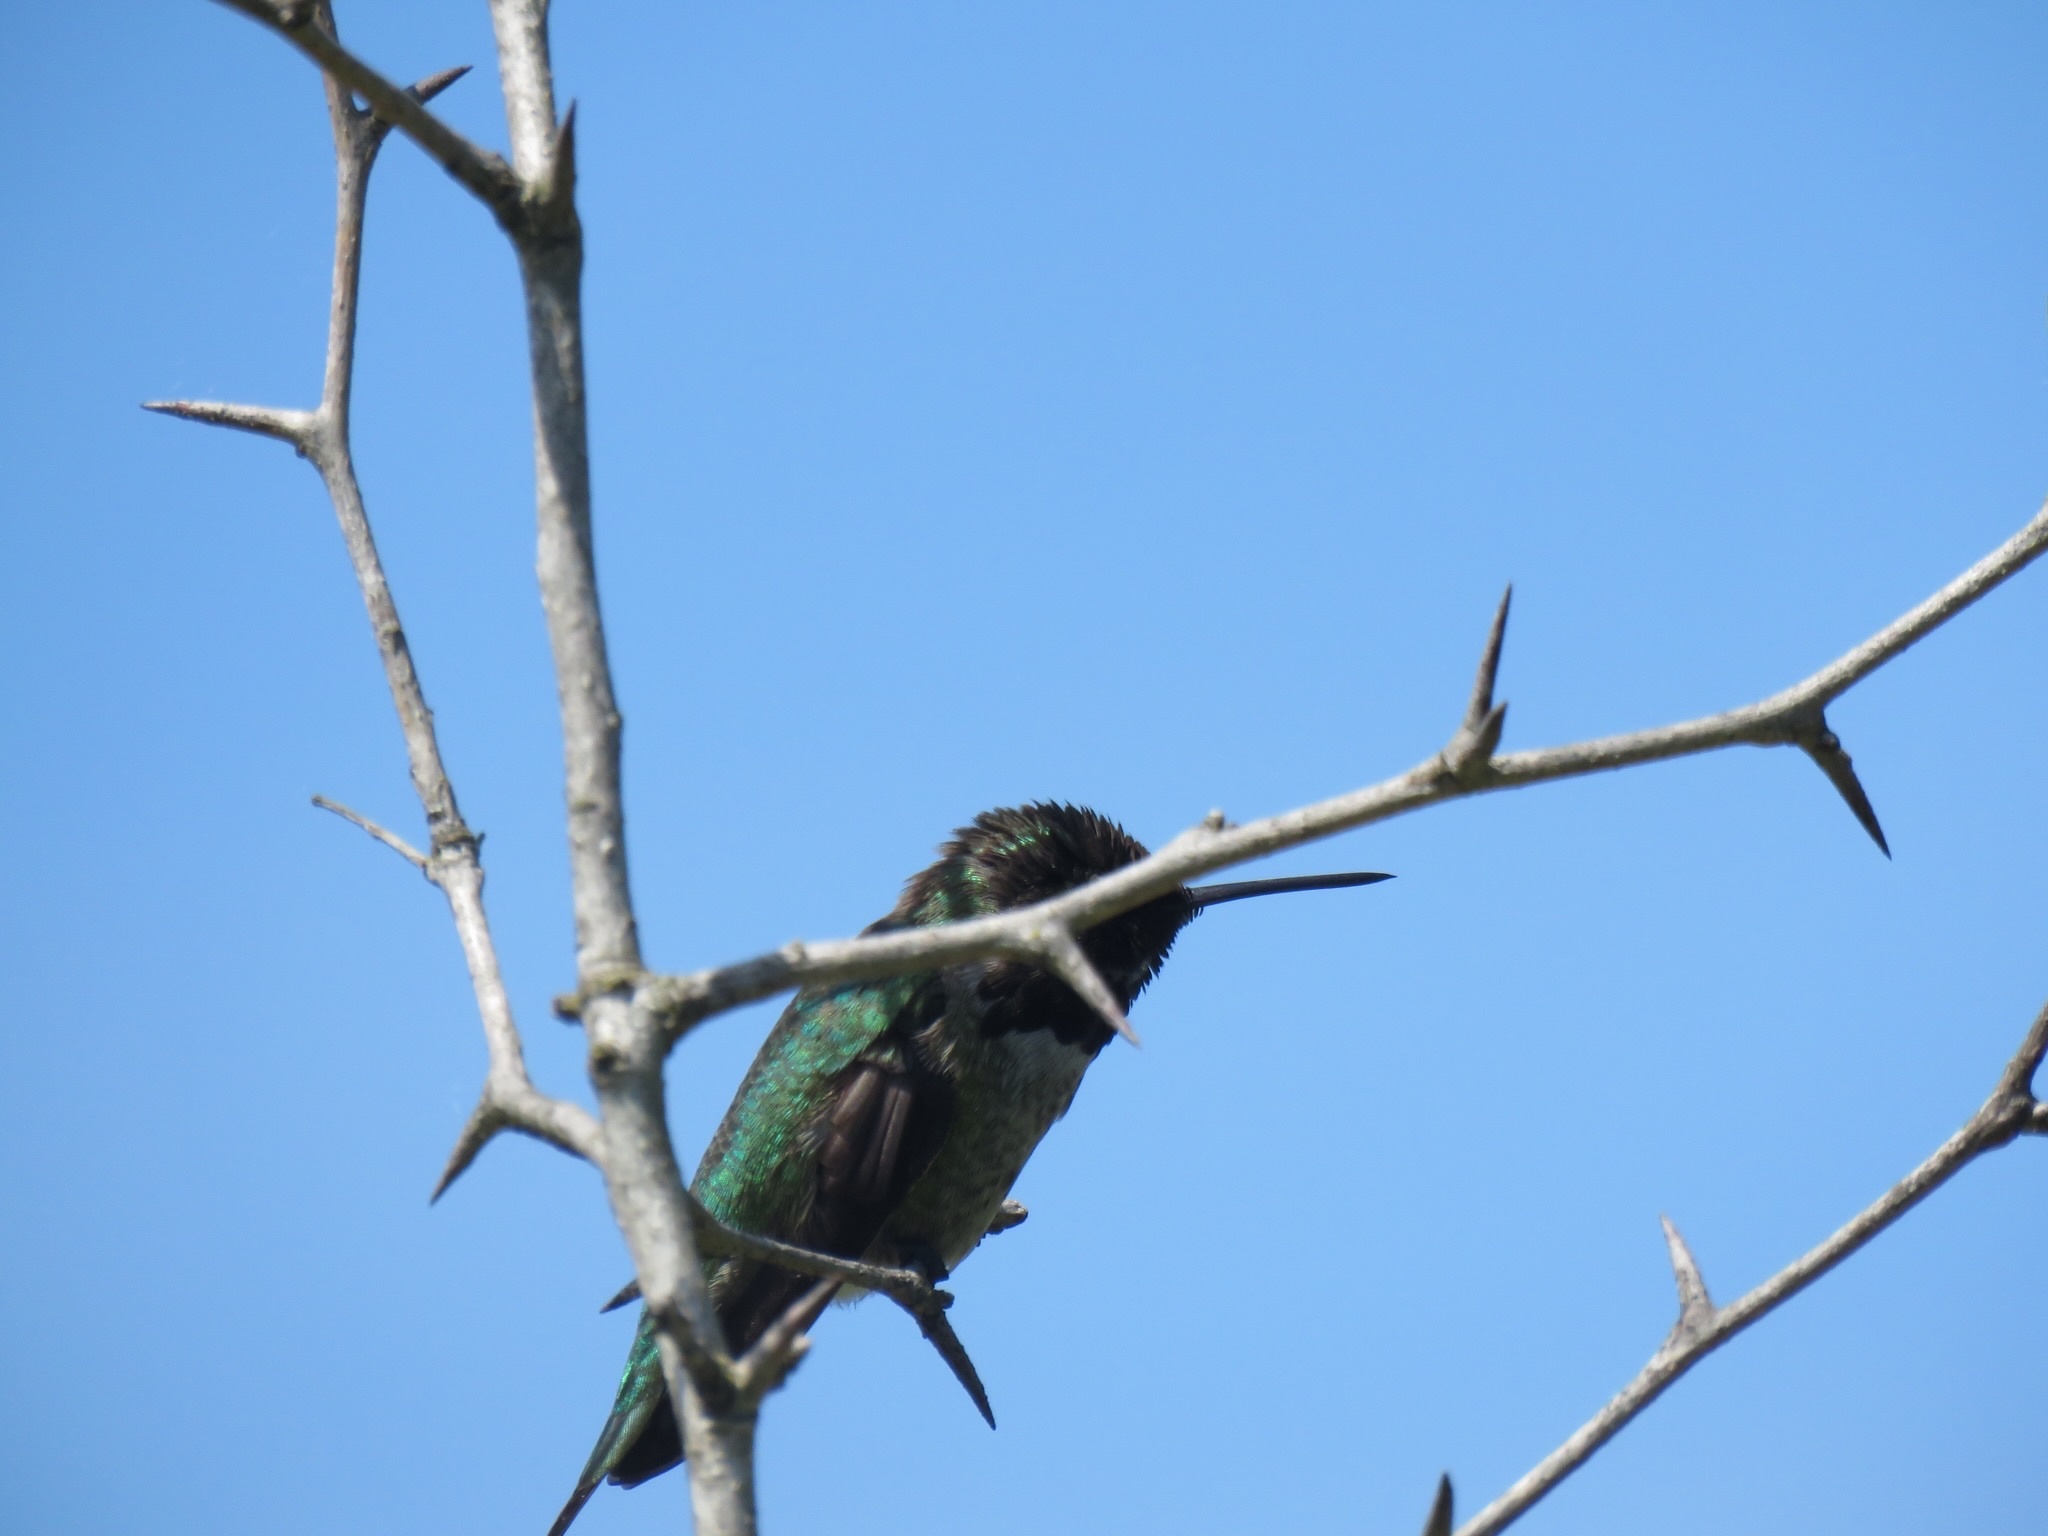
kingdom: Animalia
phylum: Chordata
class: Aves
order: Apodiformes
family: Trochilidae
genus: Calypte
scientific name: Calypte anna
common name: Anna's hummingbird
